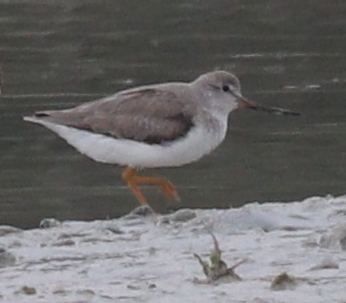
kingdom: Animalia
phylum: Chordata
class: Aves
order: Charadriiformes
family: Scolopacidae
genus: Xenus
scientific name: Xenus cinereus
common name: Terek sandpiper
